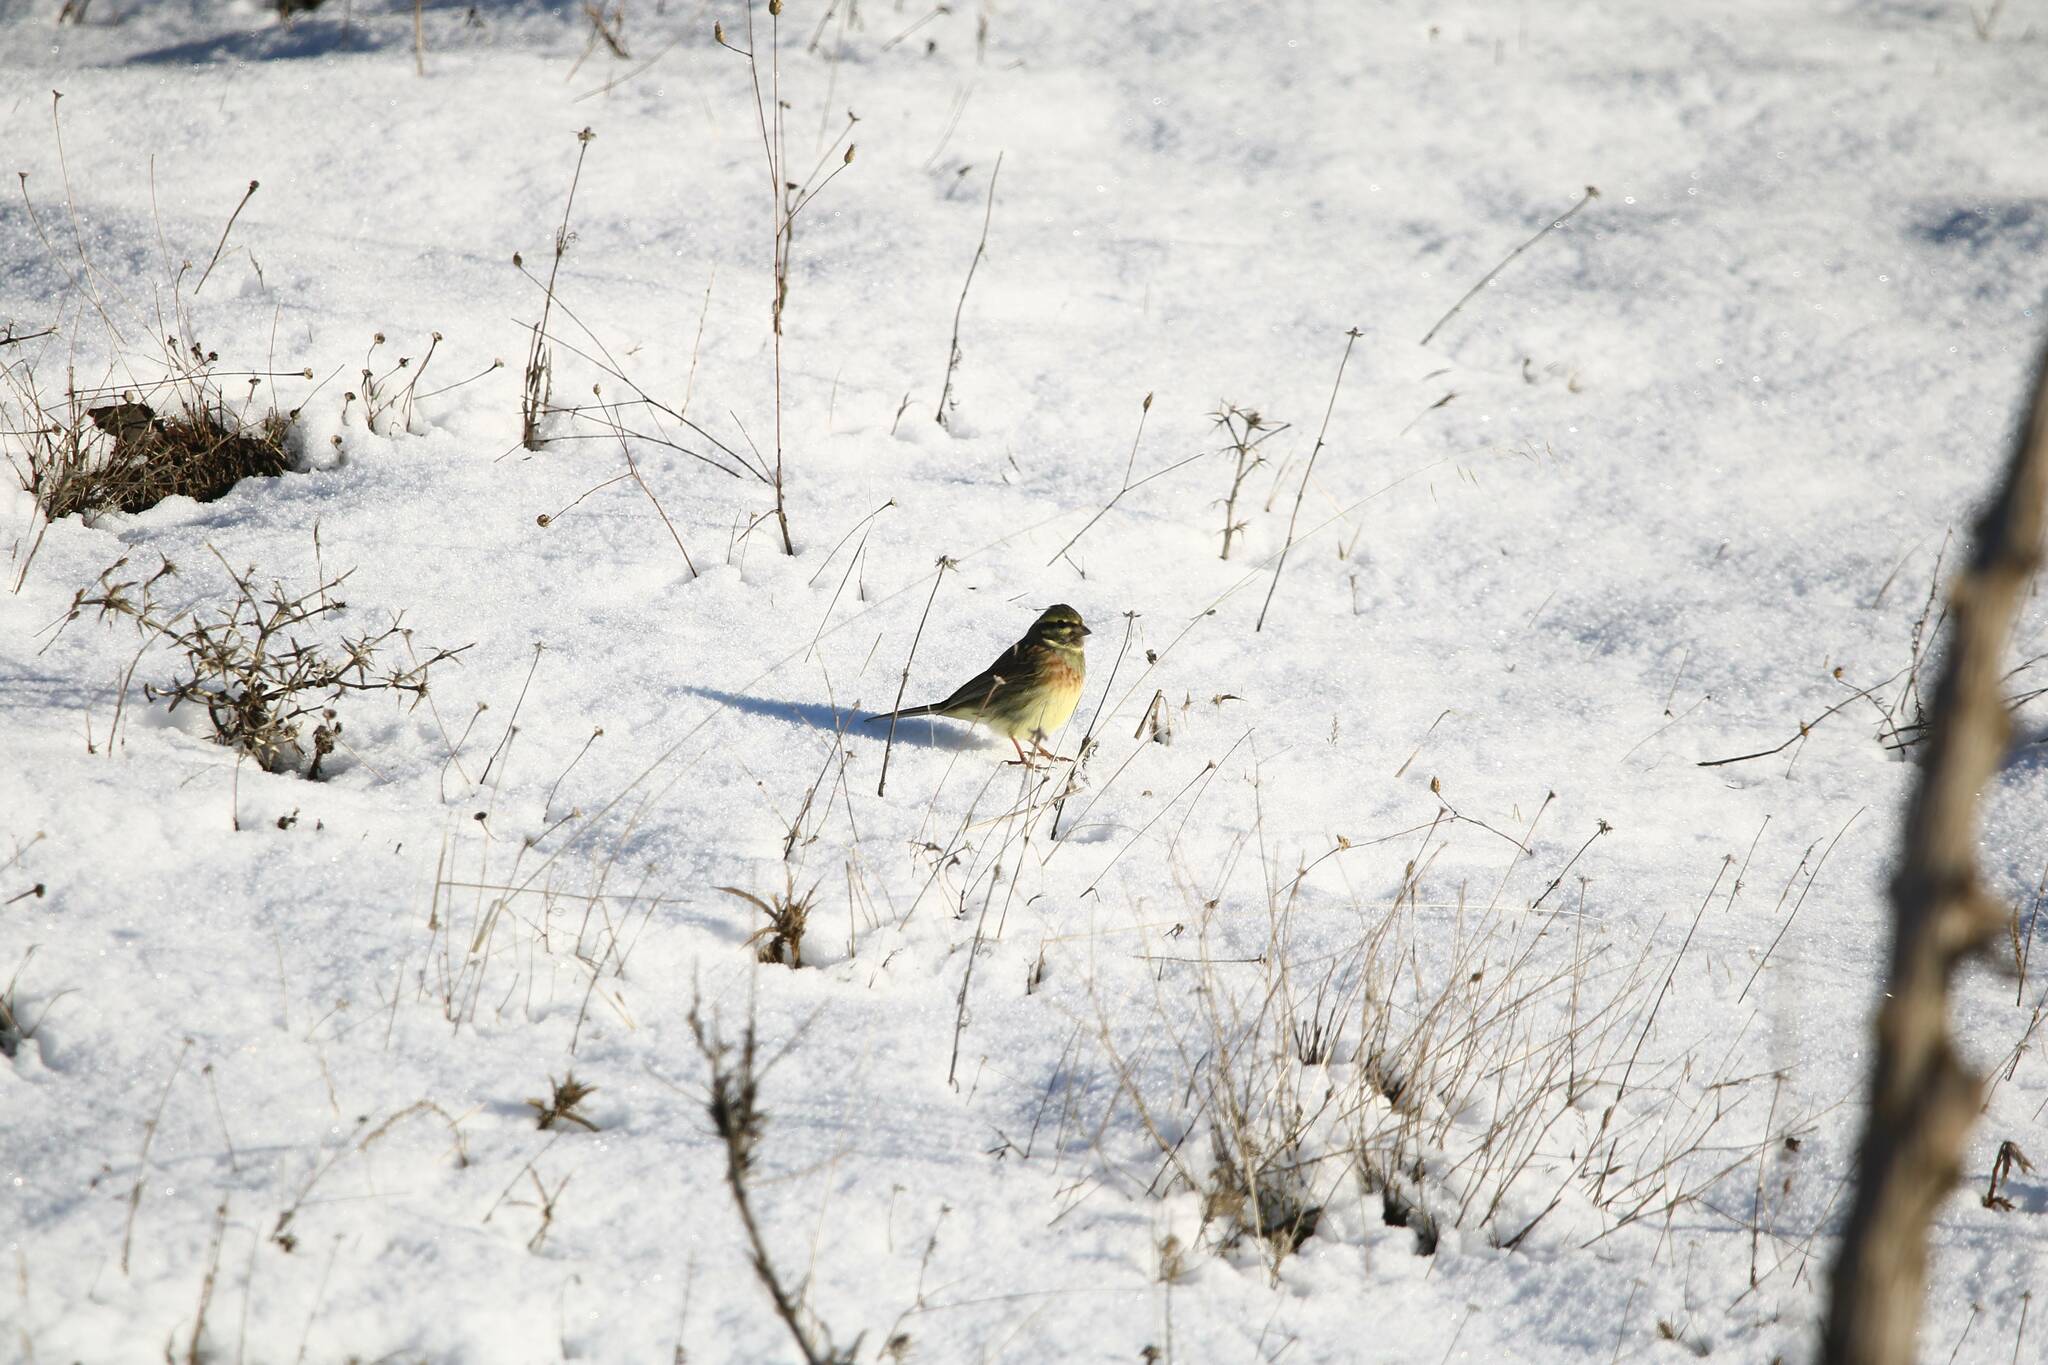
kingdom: Animalia
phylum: Chordata
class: Aves
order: Passeriformes
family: Emberizidae
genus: Emberiza
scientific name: Emberiza cirlus
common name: Cirl bunting
